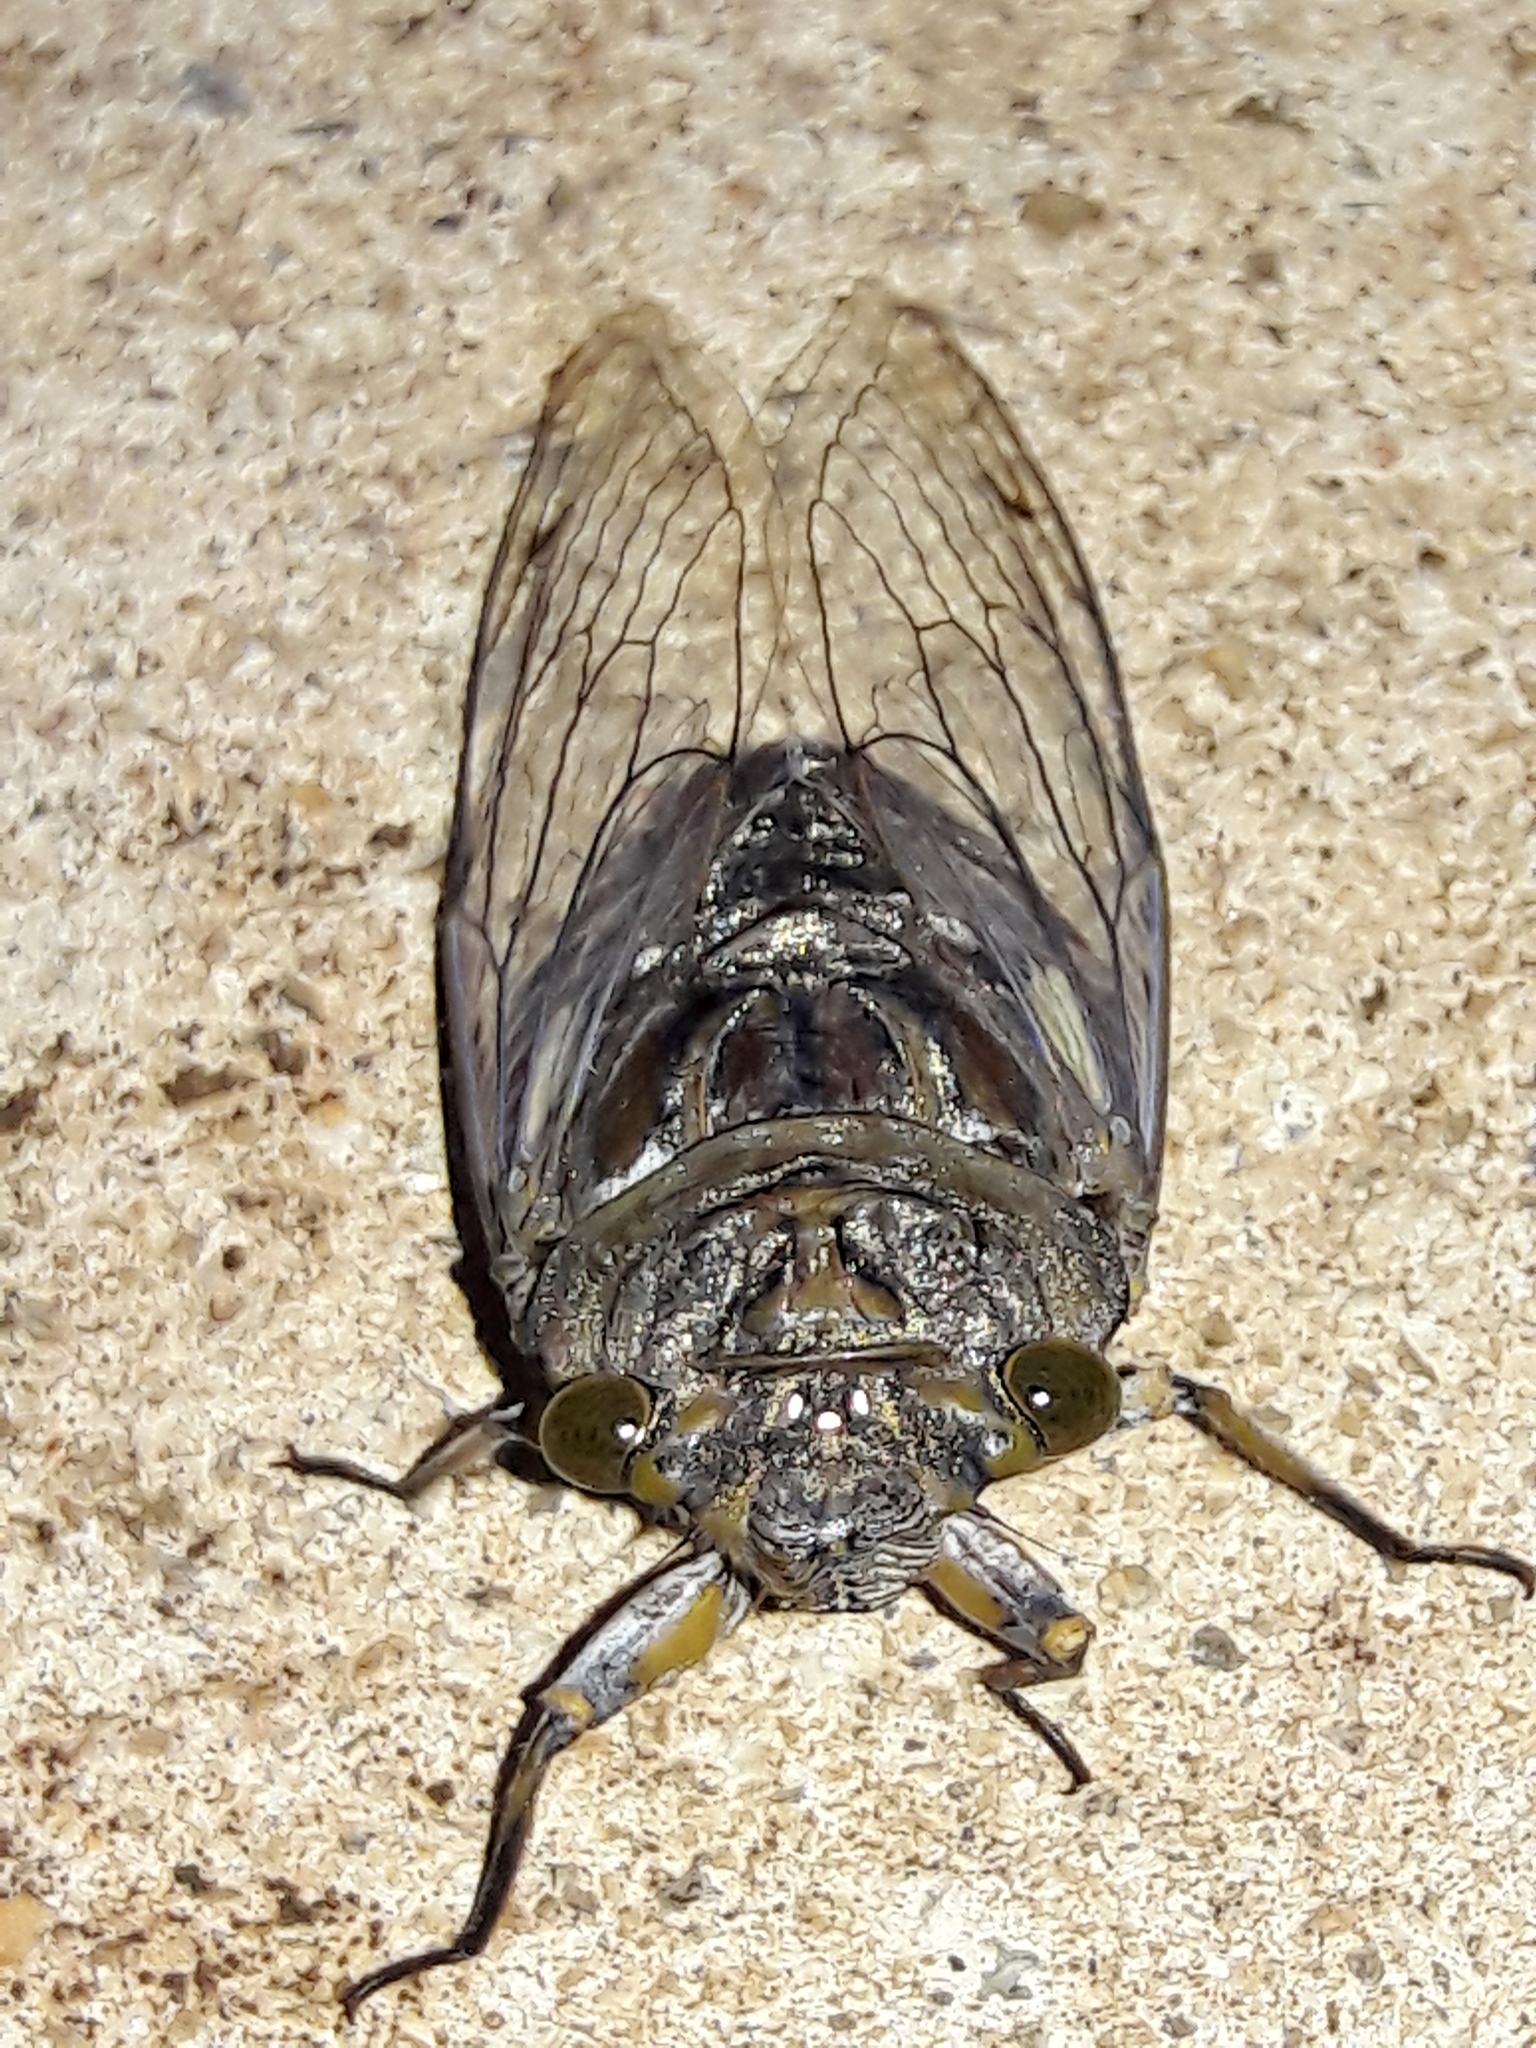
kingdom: Animalia
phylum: Arthropoda
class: Insecta
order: Hemiptera
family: Cicadidae
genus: Quesada
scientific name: Quesada gigas
